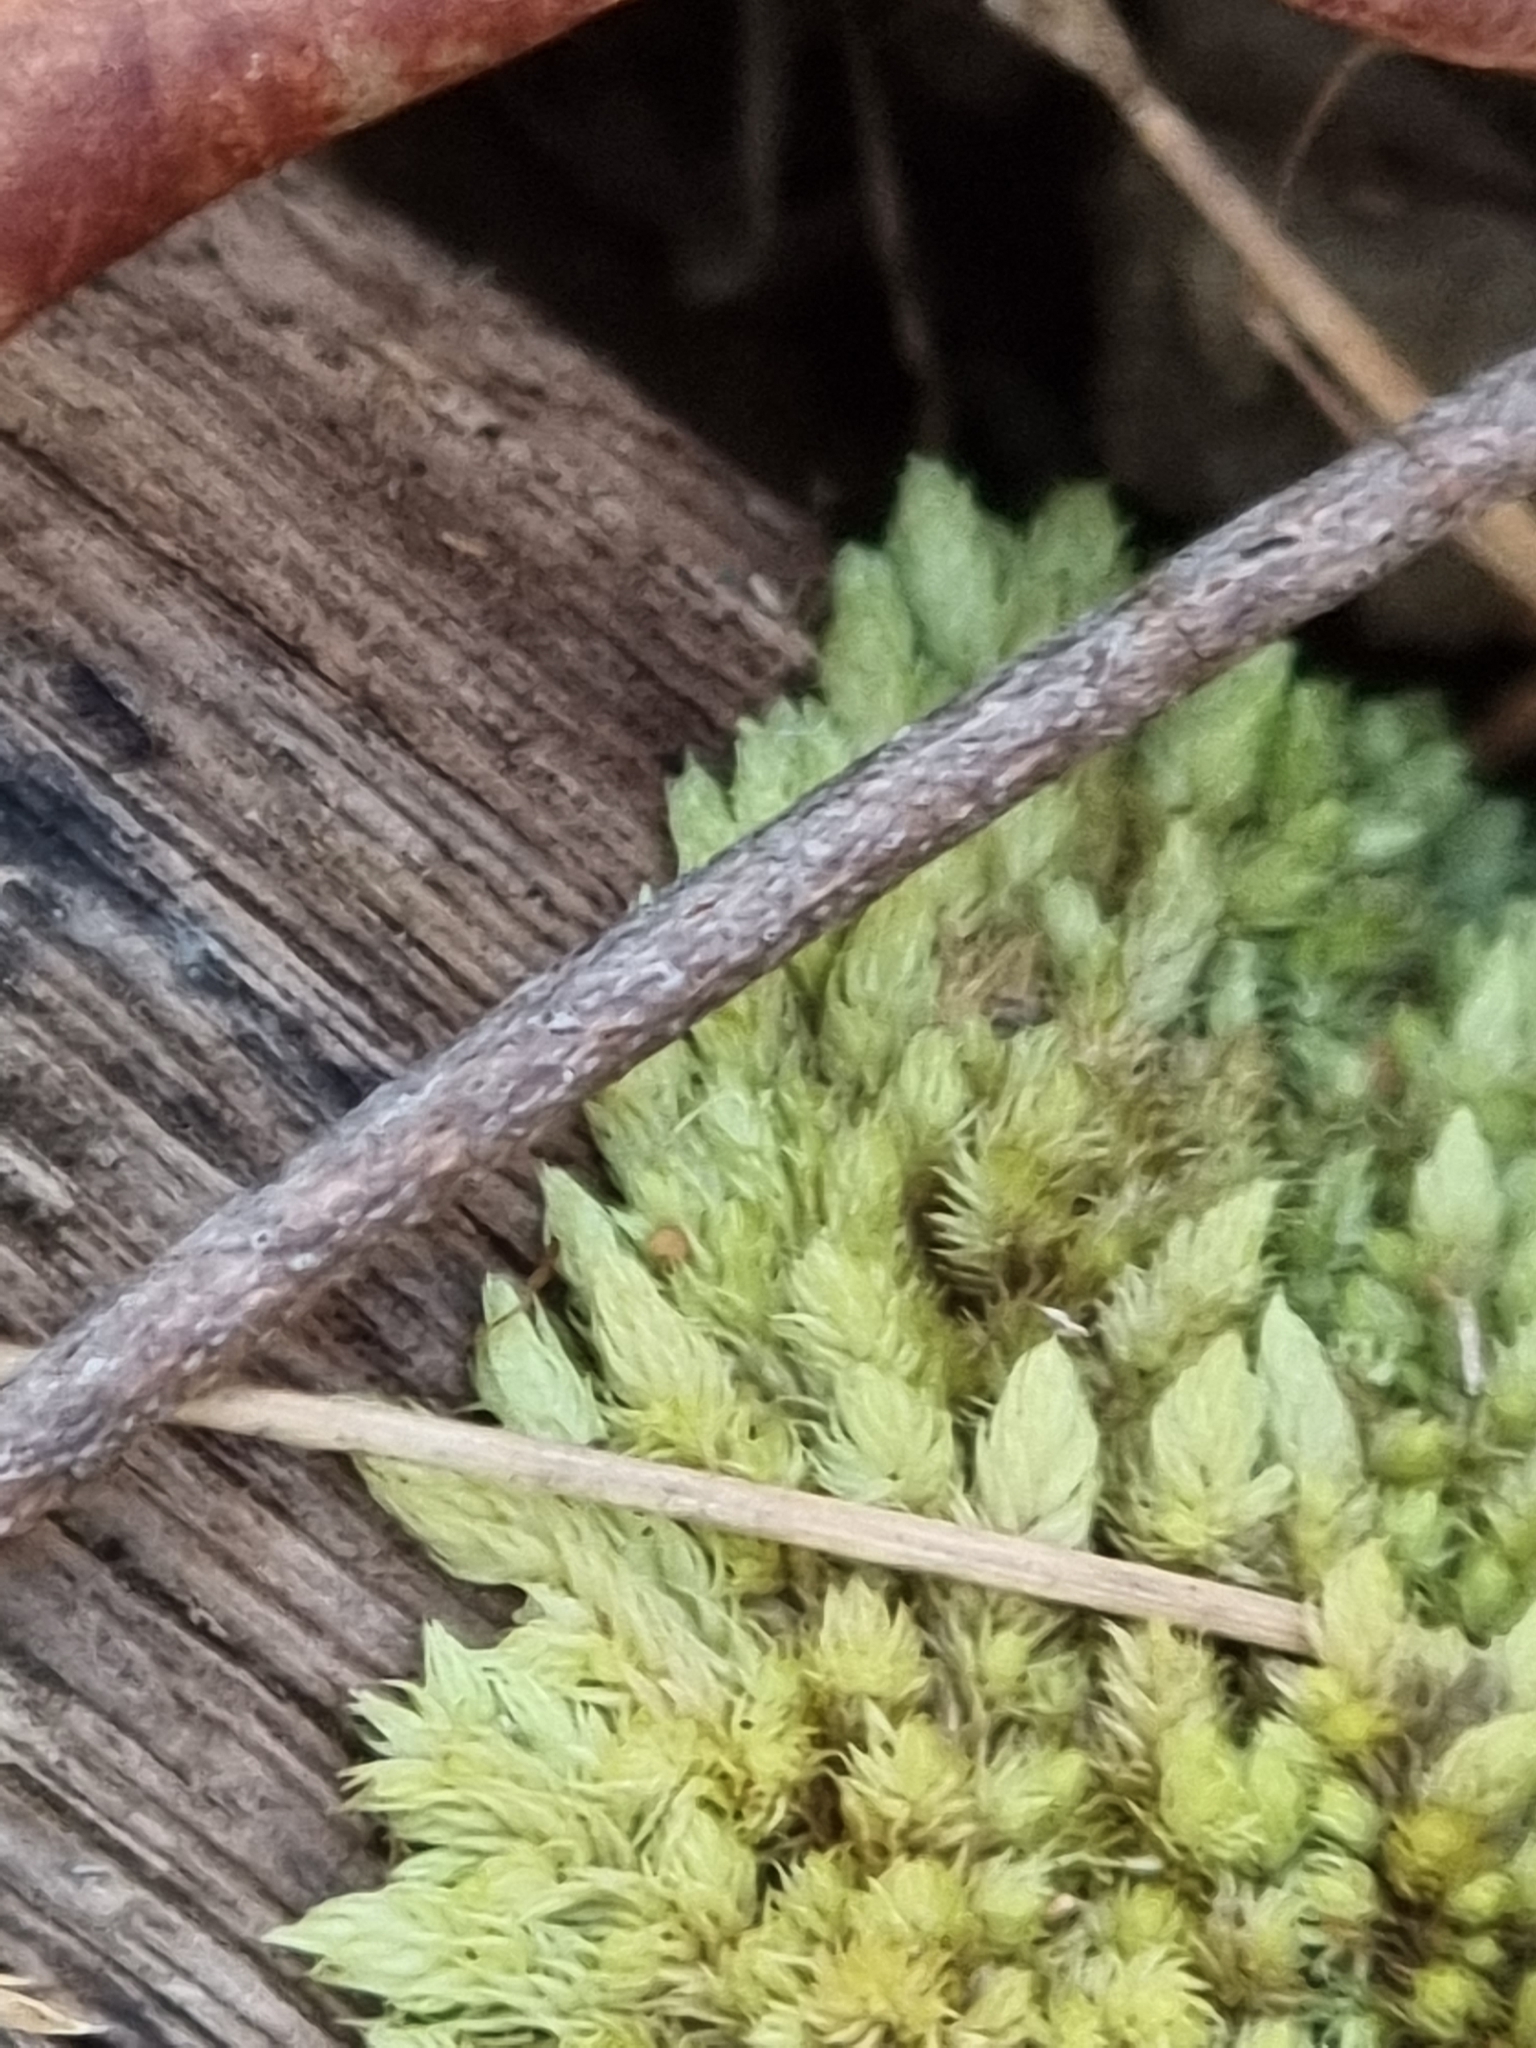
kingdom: Plantae
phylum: Bryophyta
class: Bryopsida
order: Dicranales
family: Leucobryaceae
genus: Leucobryum
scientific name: Leucobryum javense
